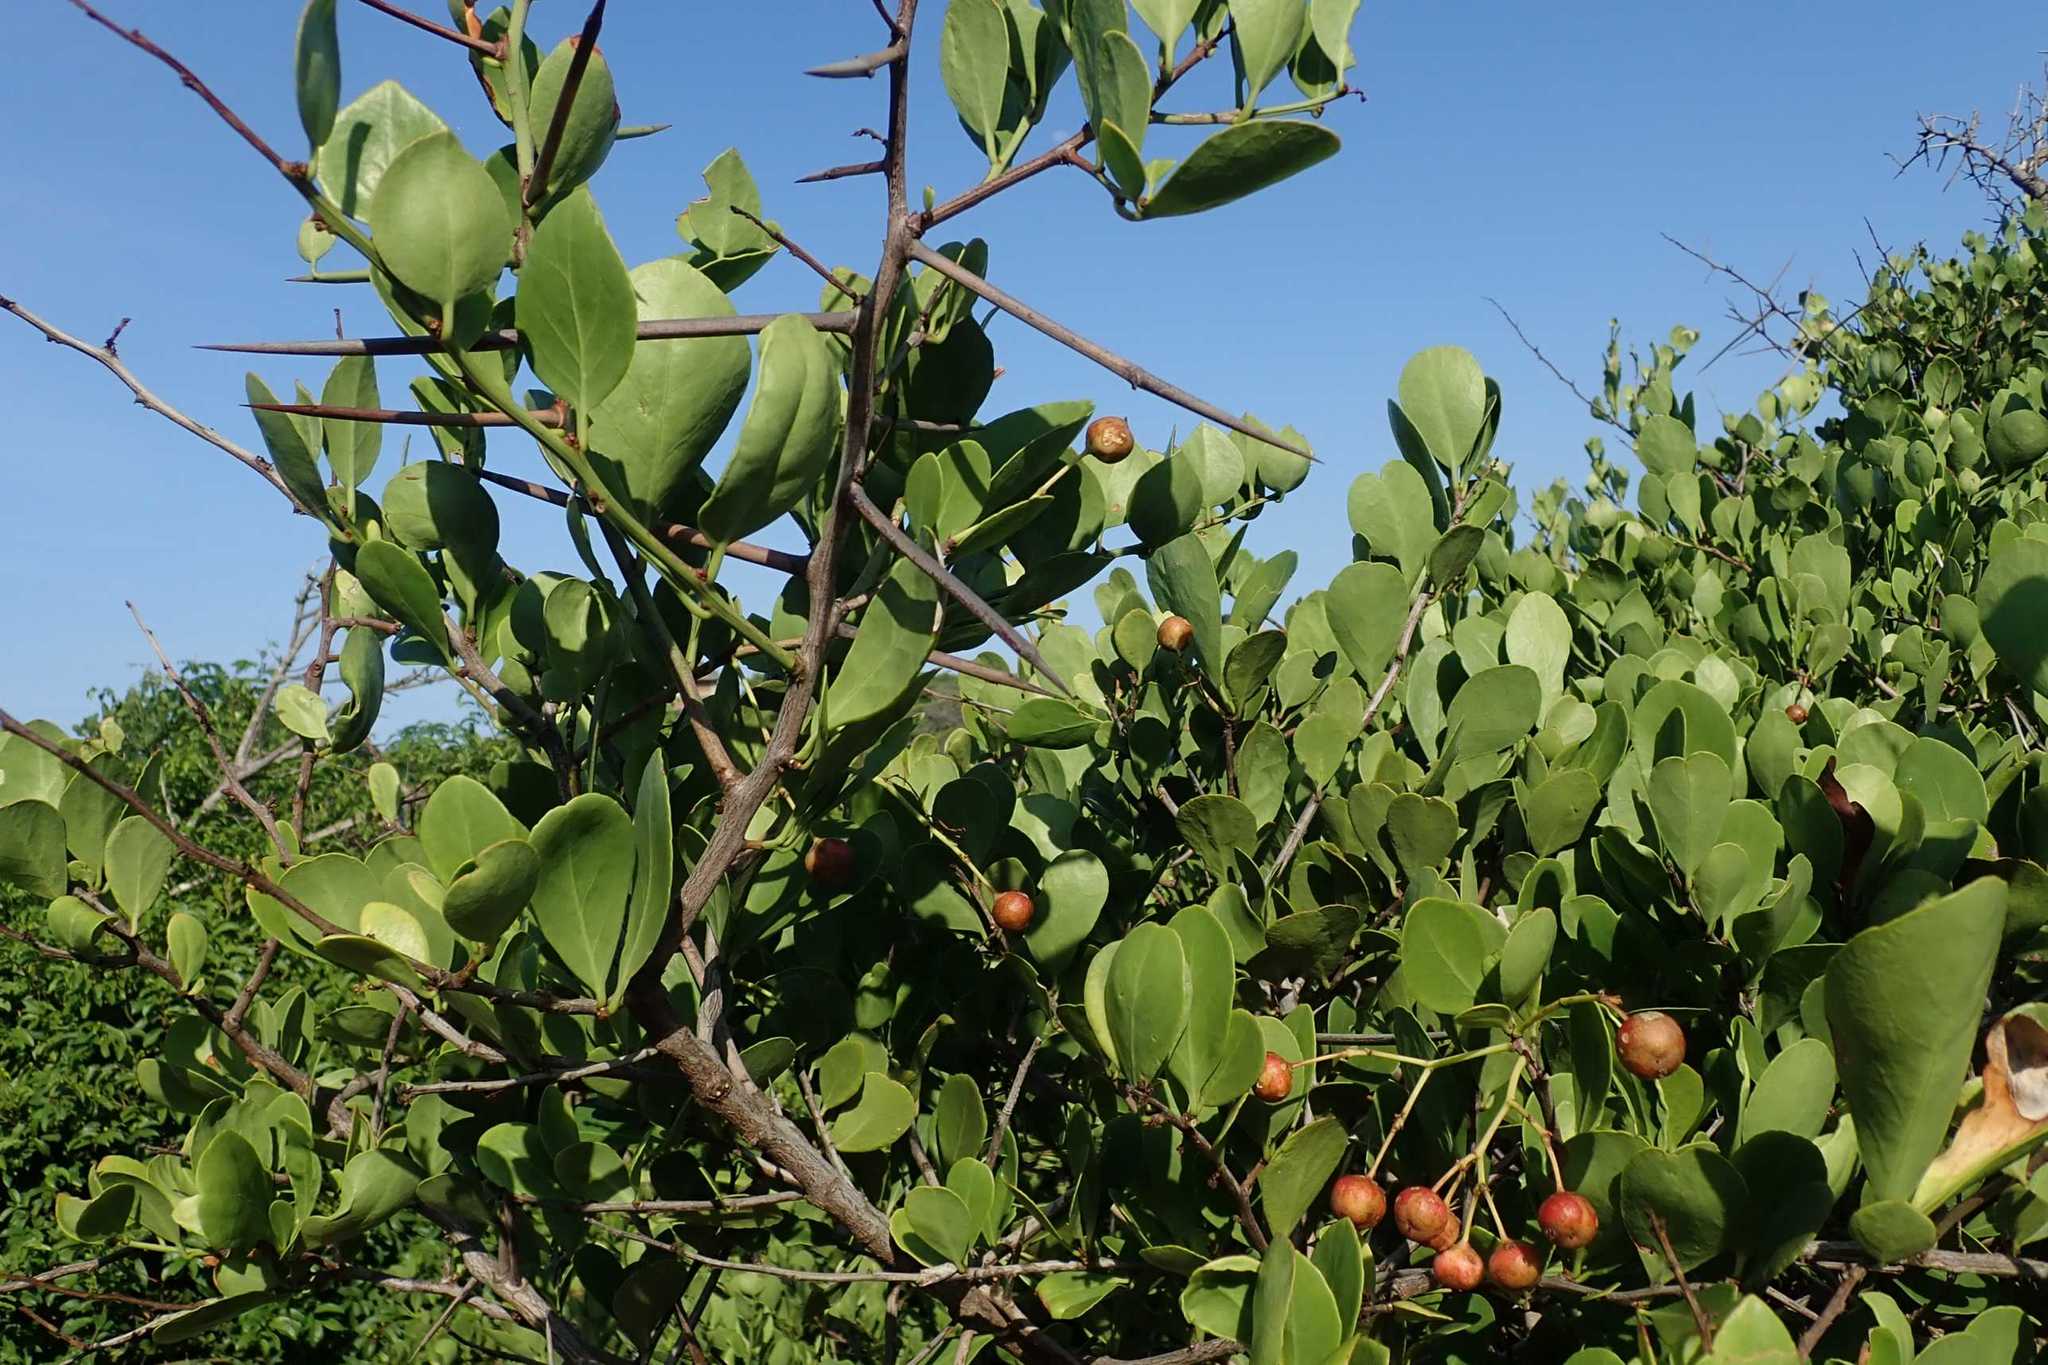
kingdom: Plantae
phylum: Tracheophyta
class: Magnoliopsida
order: Celastrales
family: Celastraceae
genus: Gymnosporia
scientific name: Gymnosporia arenicola
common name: Dune spike-thorn
